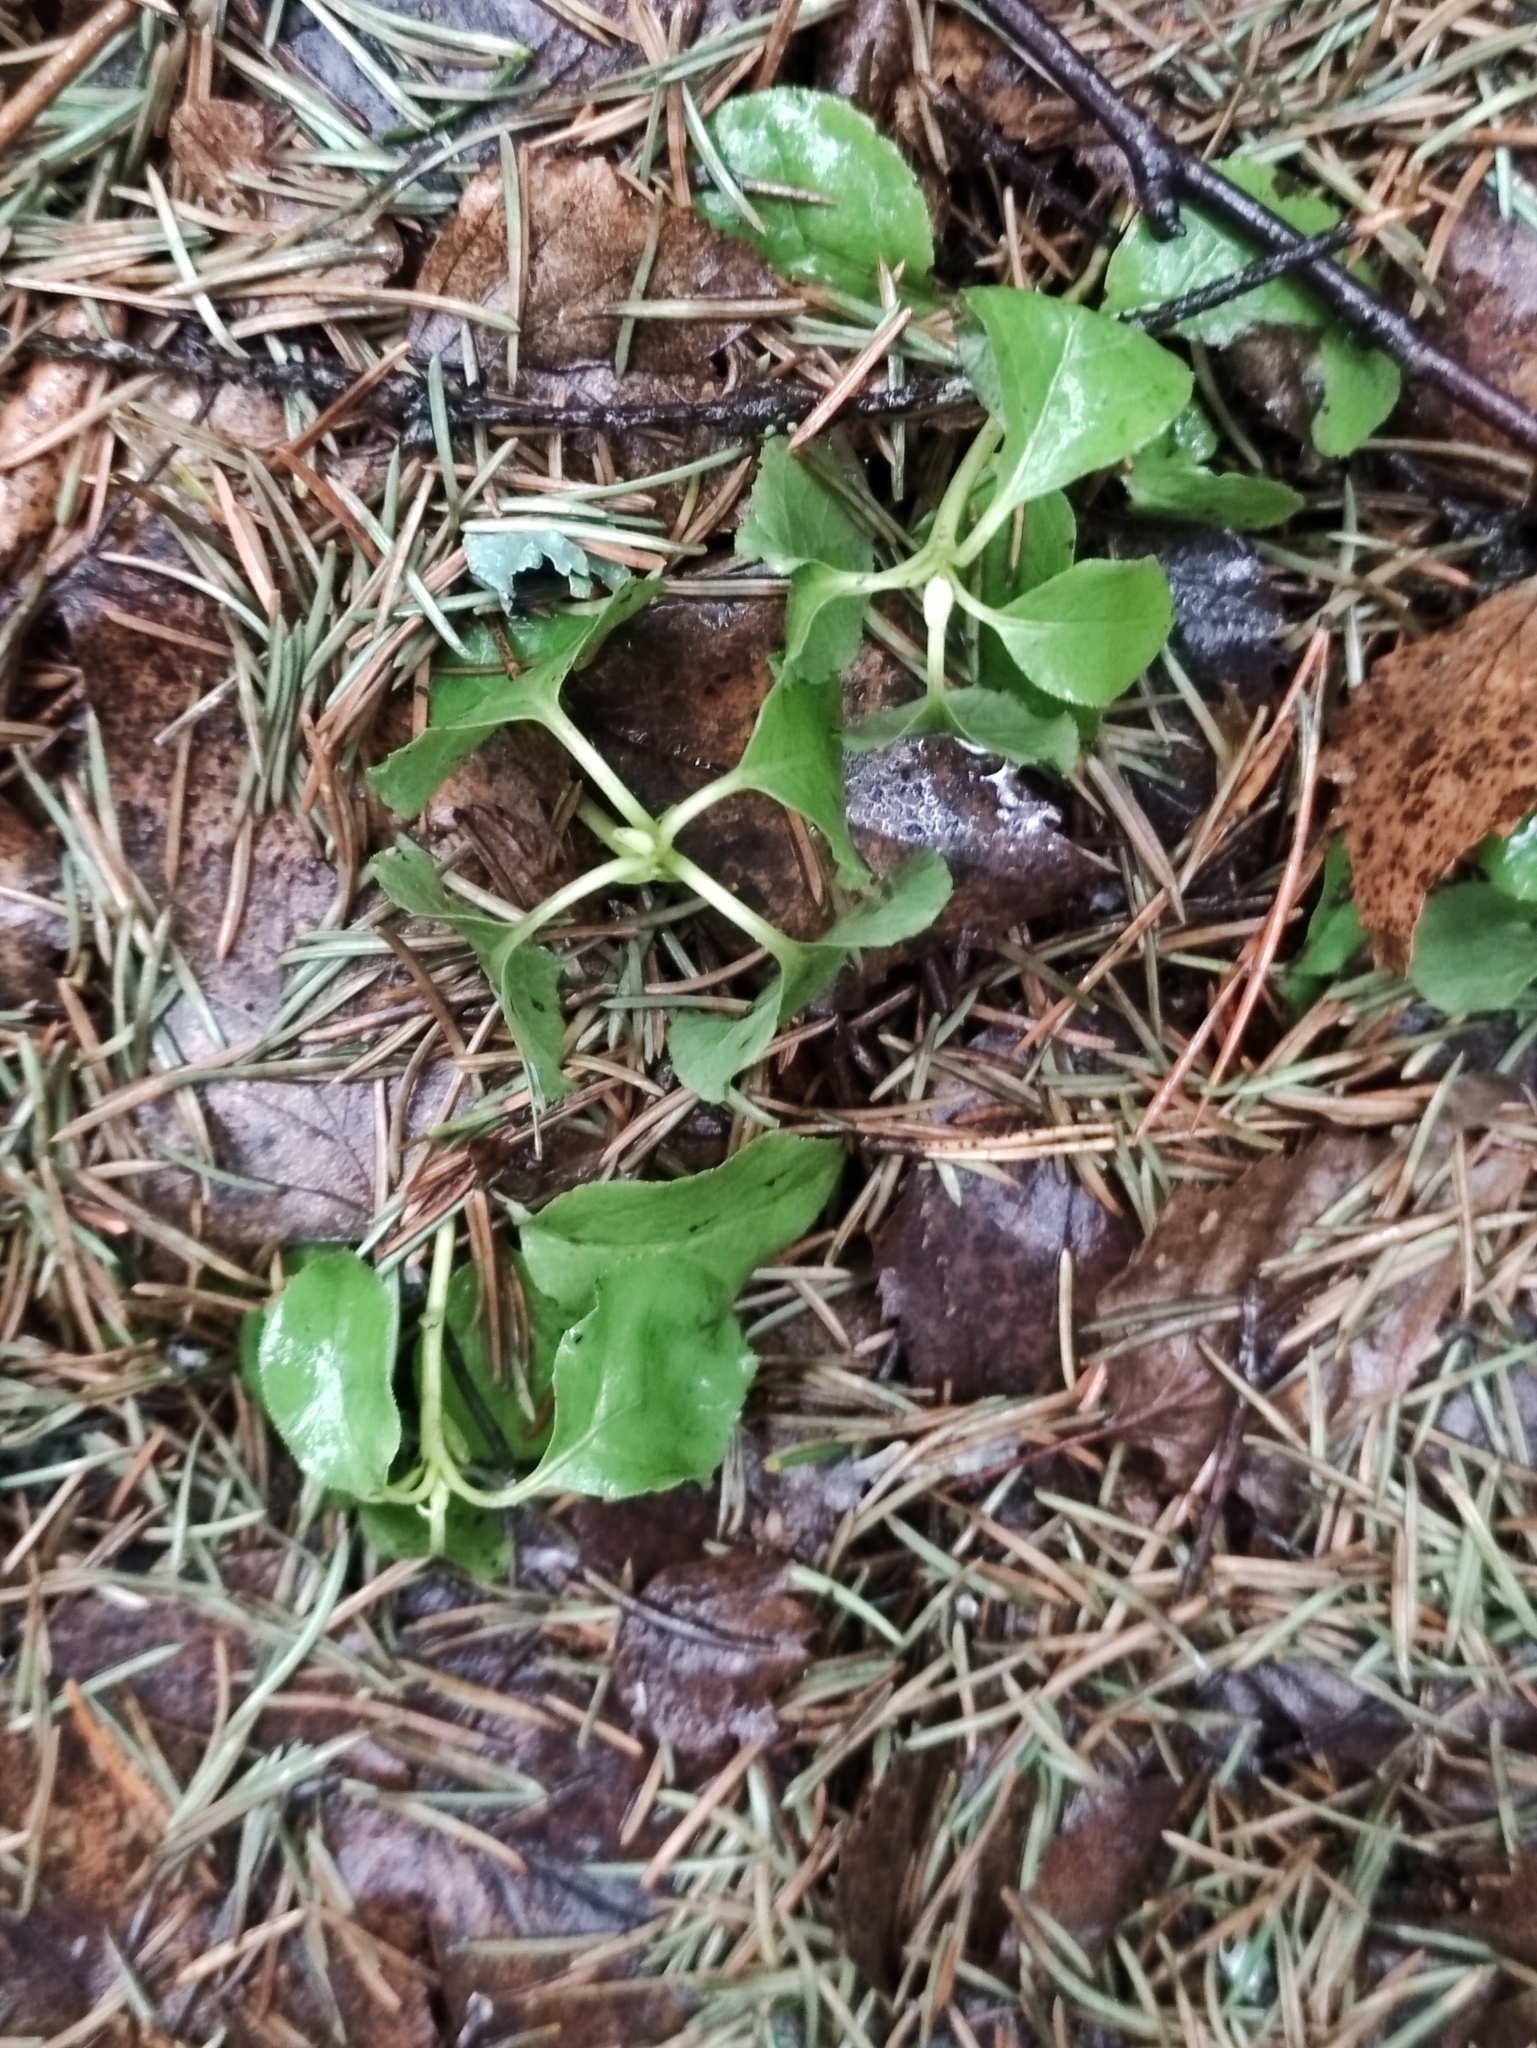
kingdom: Plantae
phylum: Tracheophyta
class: Magnoliopsida
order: Ericales
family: Ericaceae
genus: Orthilia
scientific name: Orthilia secunda
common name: One-sided orthilia
